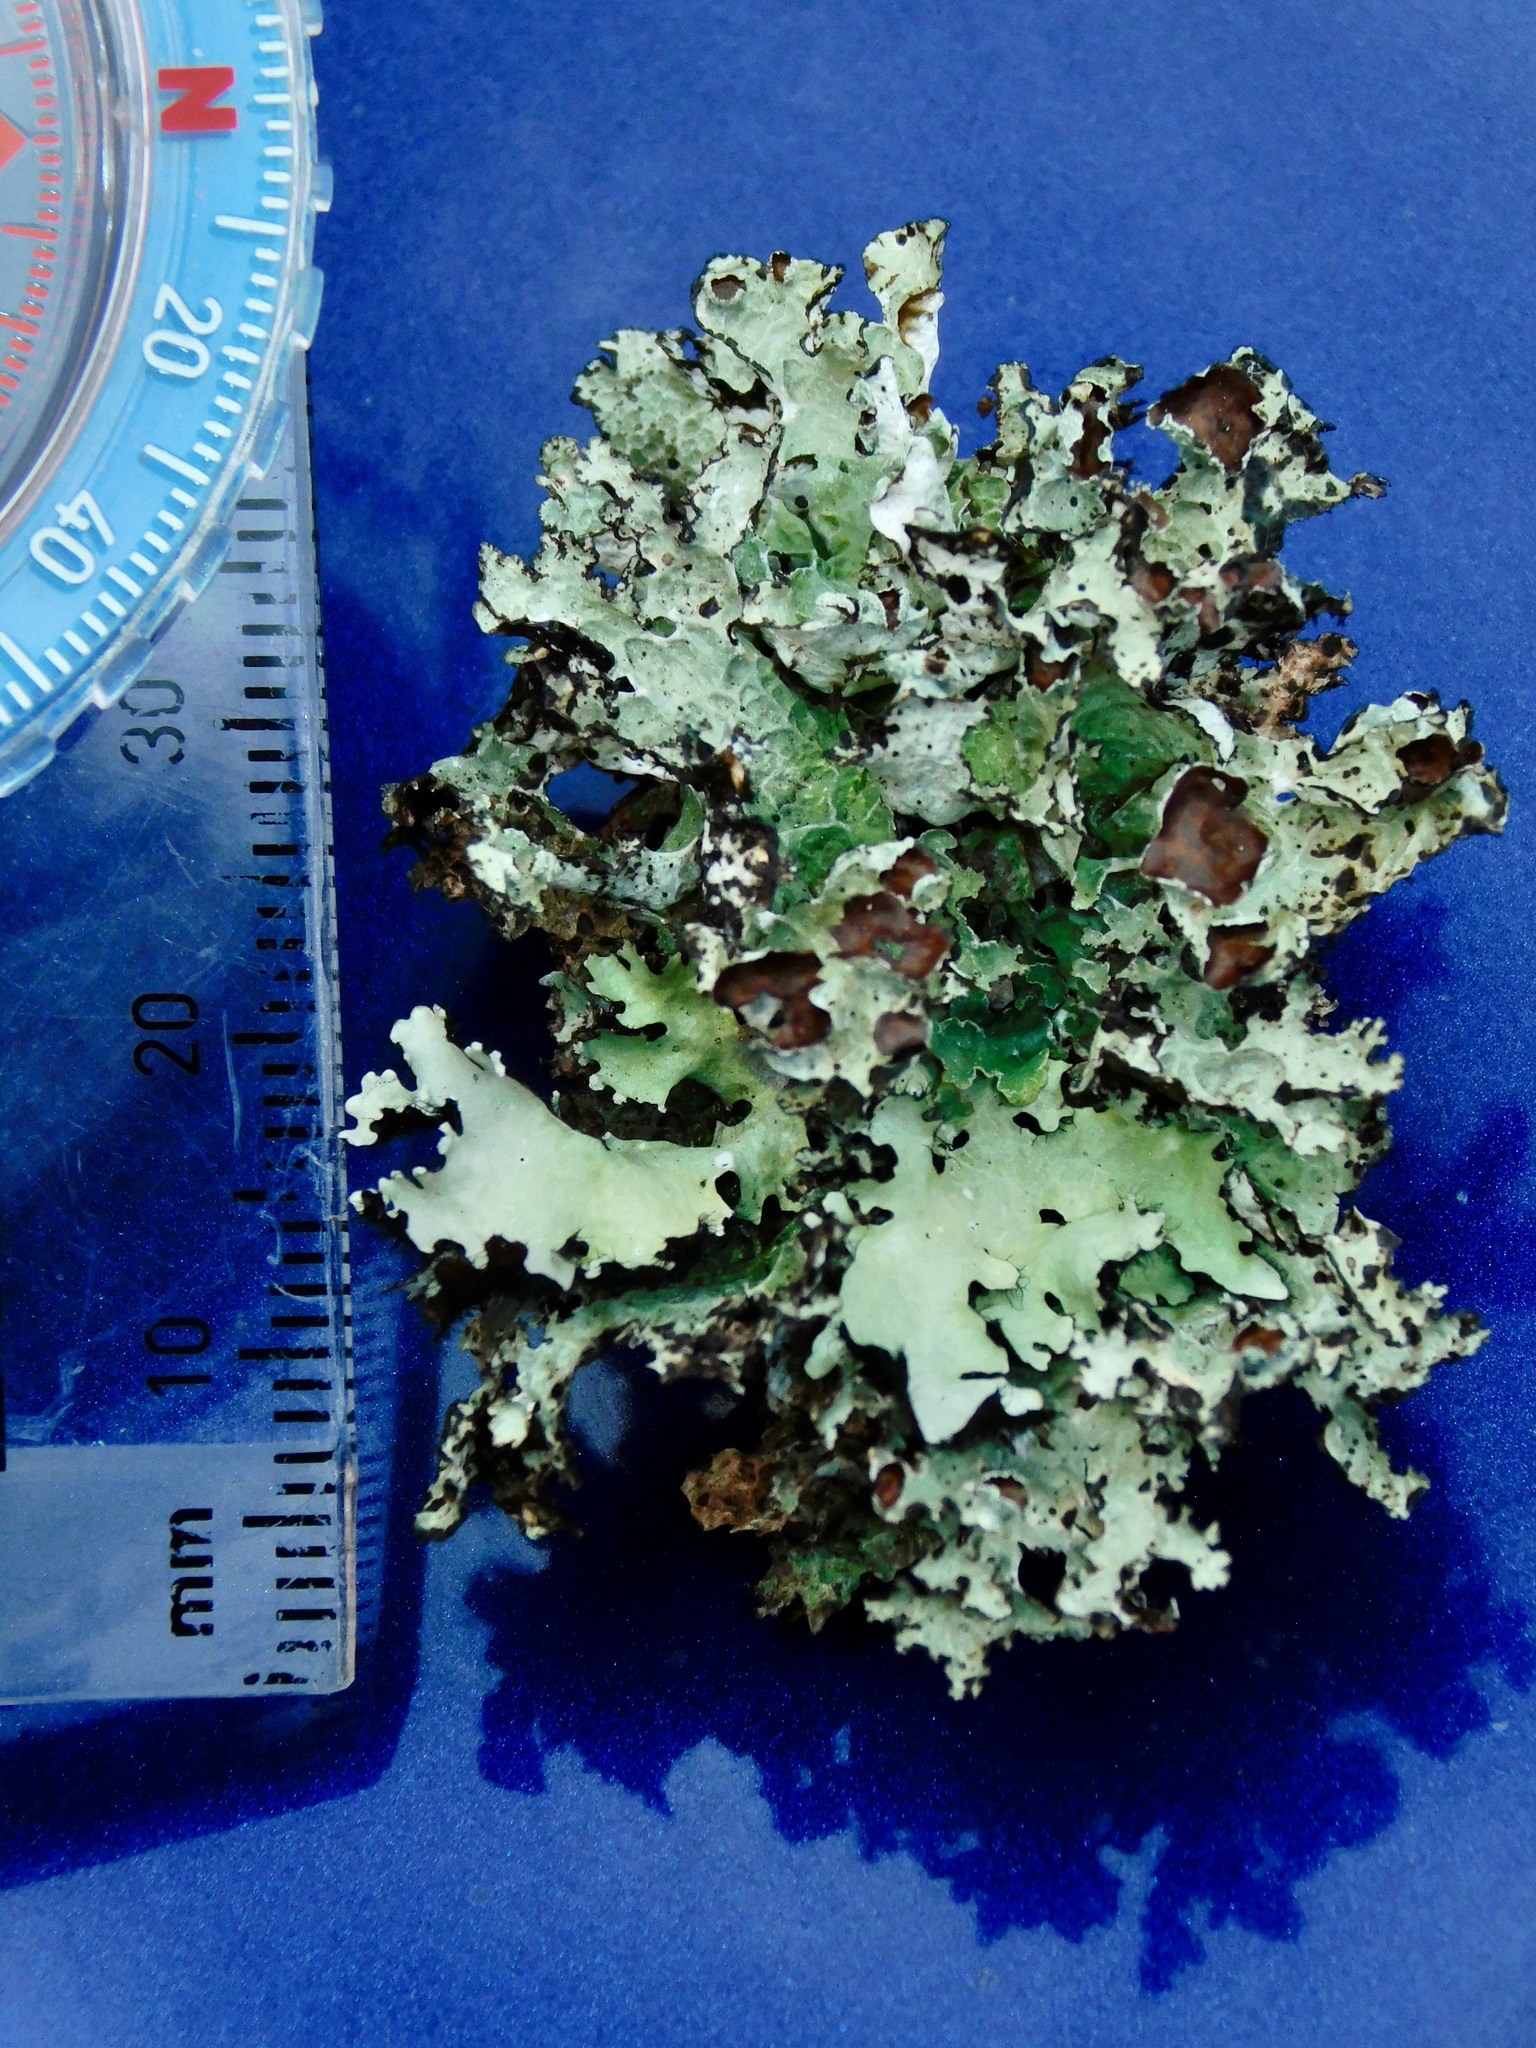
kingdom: Fungi
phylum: Ascomycota
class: Lecanoromycetes
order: Lecanorales
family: Parmeliaceae
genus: Platismatia
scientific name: Platismatia tuckermanii
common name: Crumpled rag lichen
